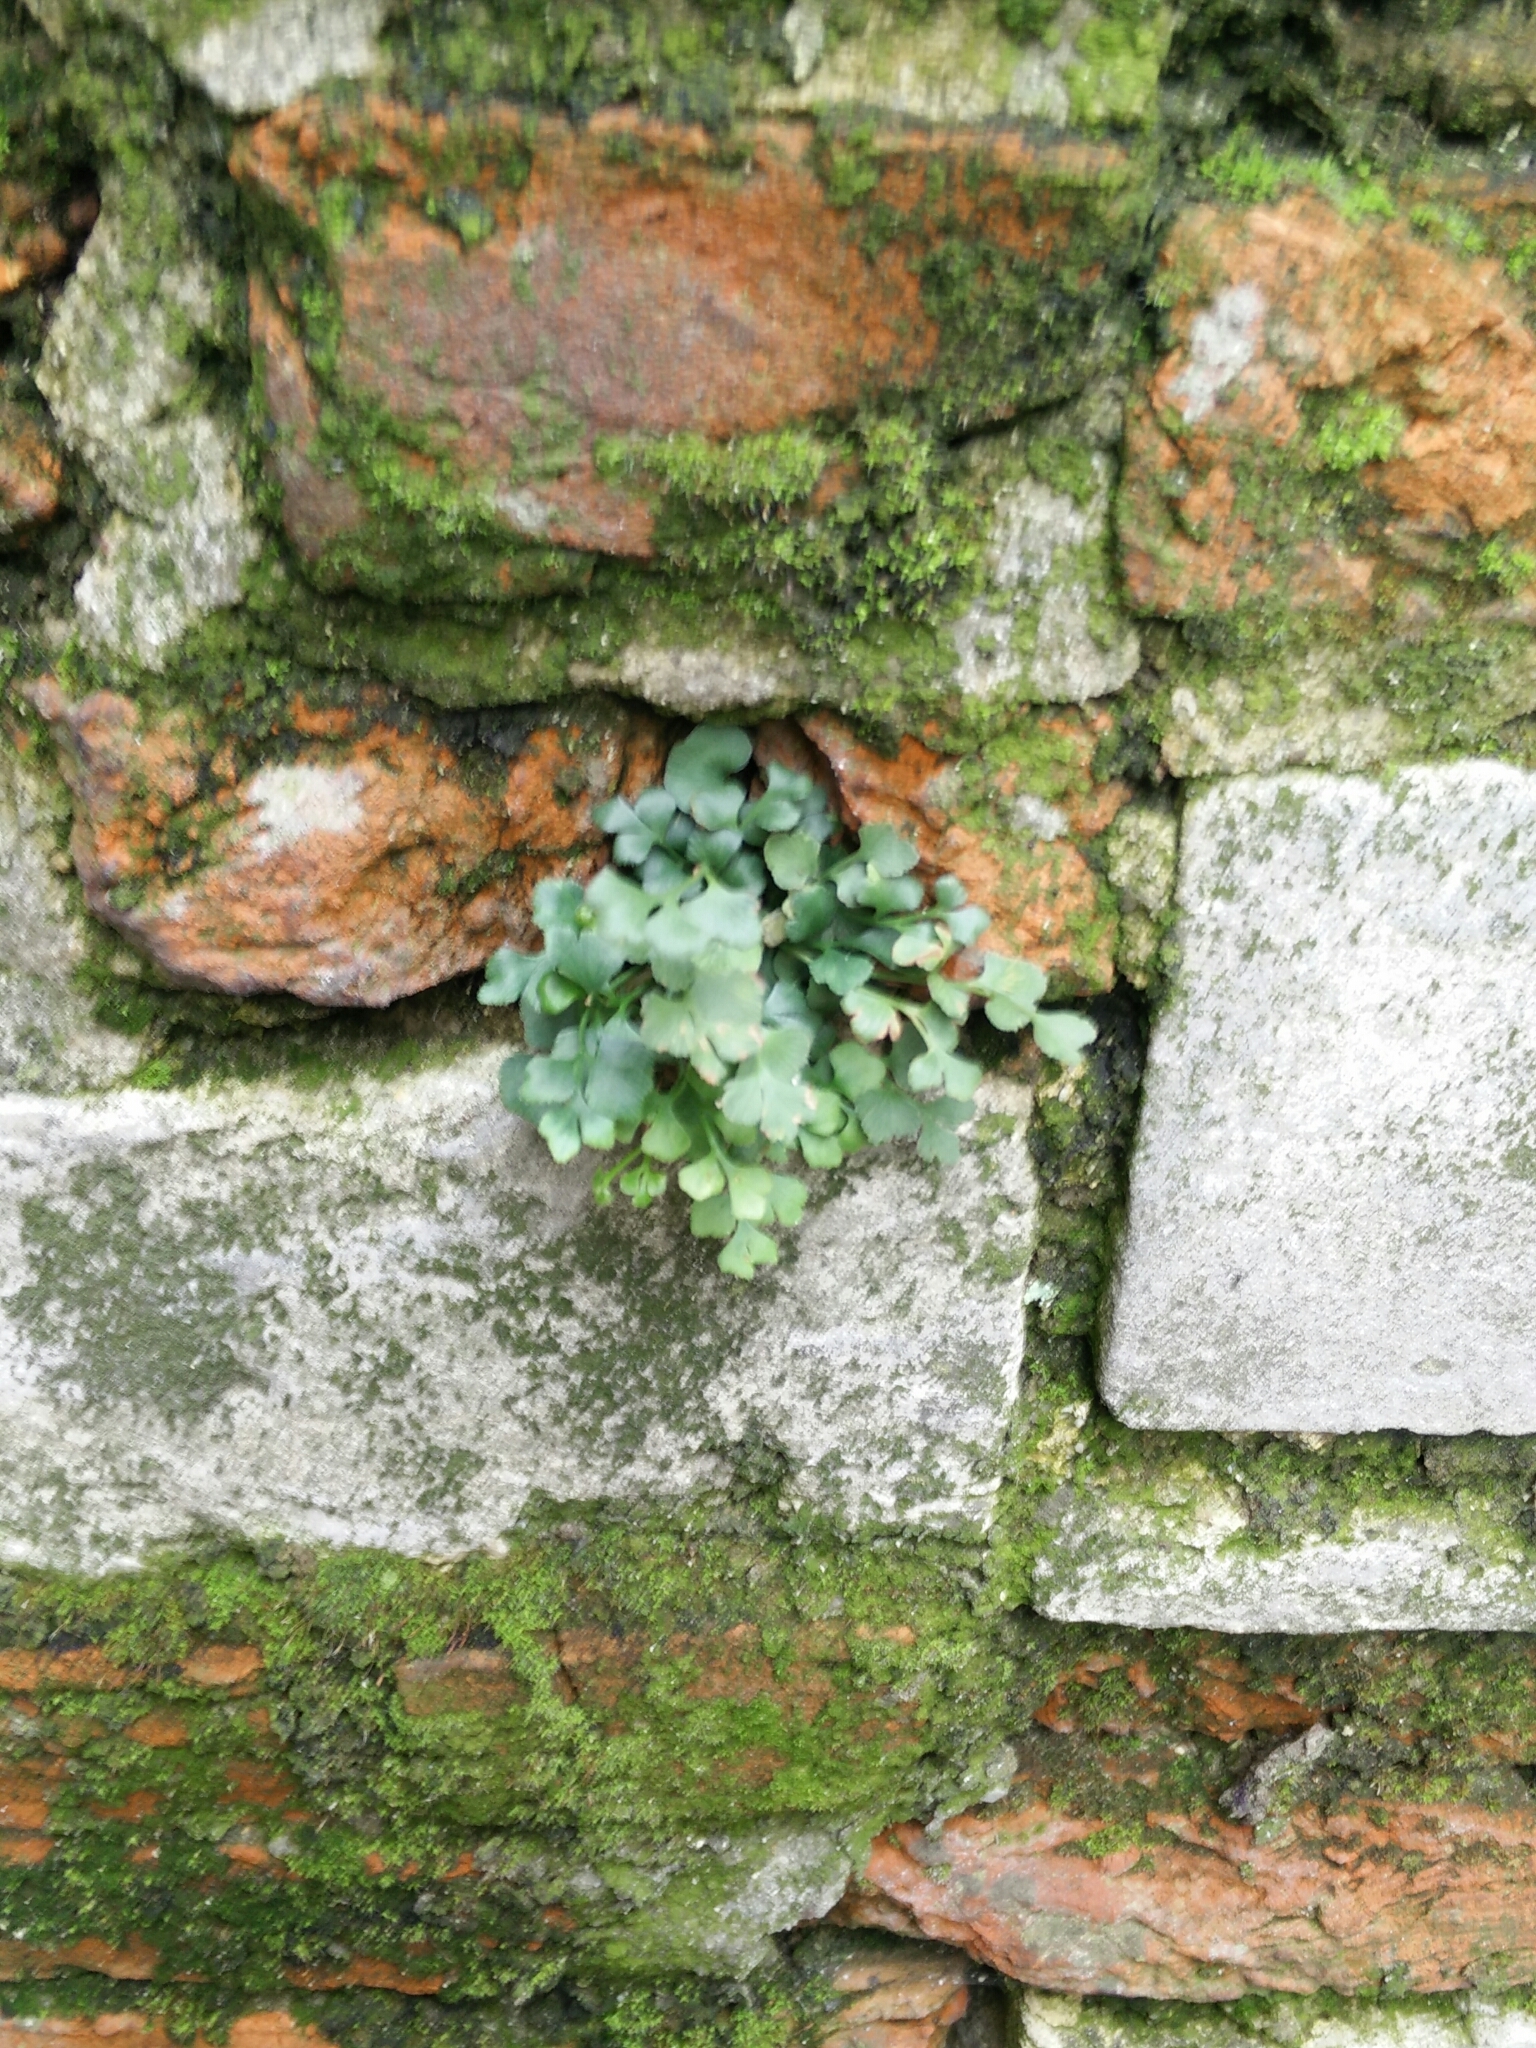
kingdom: Plantae
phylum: Tracheophyta
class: Polypodiopsida
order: Polypodiales
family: Aspleniaceae
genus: Asplenium
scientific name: Asplenium ruta-muraria
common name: Wall-rue
